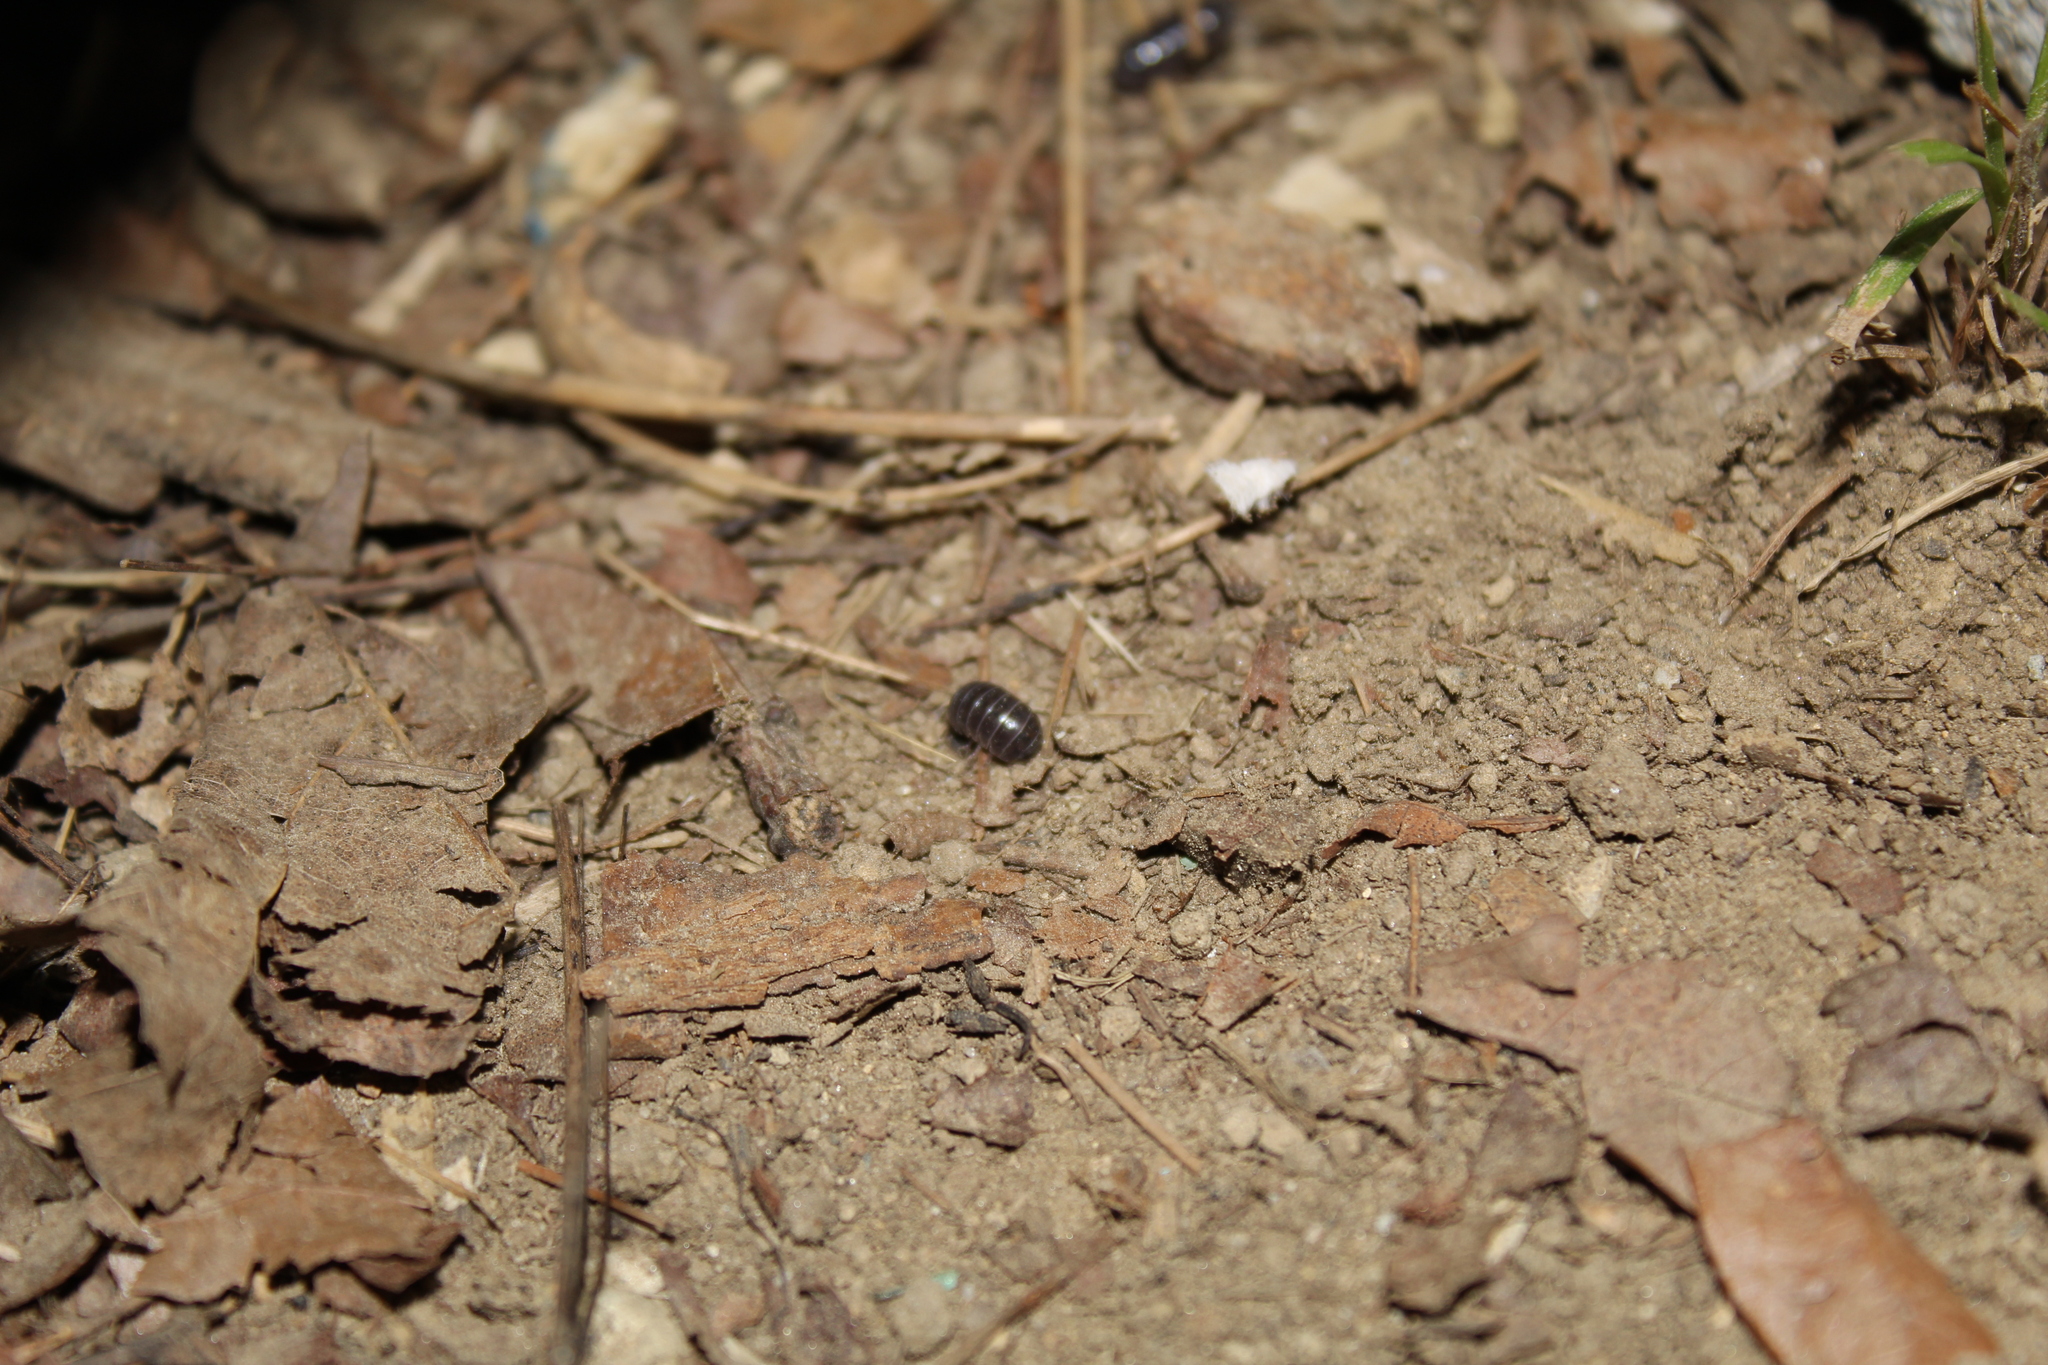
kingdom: Animalia
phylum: Arthropoda
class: Malacostraca
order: Isopoda
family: Armadillidiidae
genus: Armadillidium
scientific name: Armadillidium vulgare
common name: Common pill woodlouse
